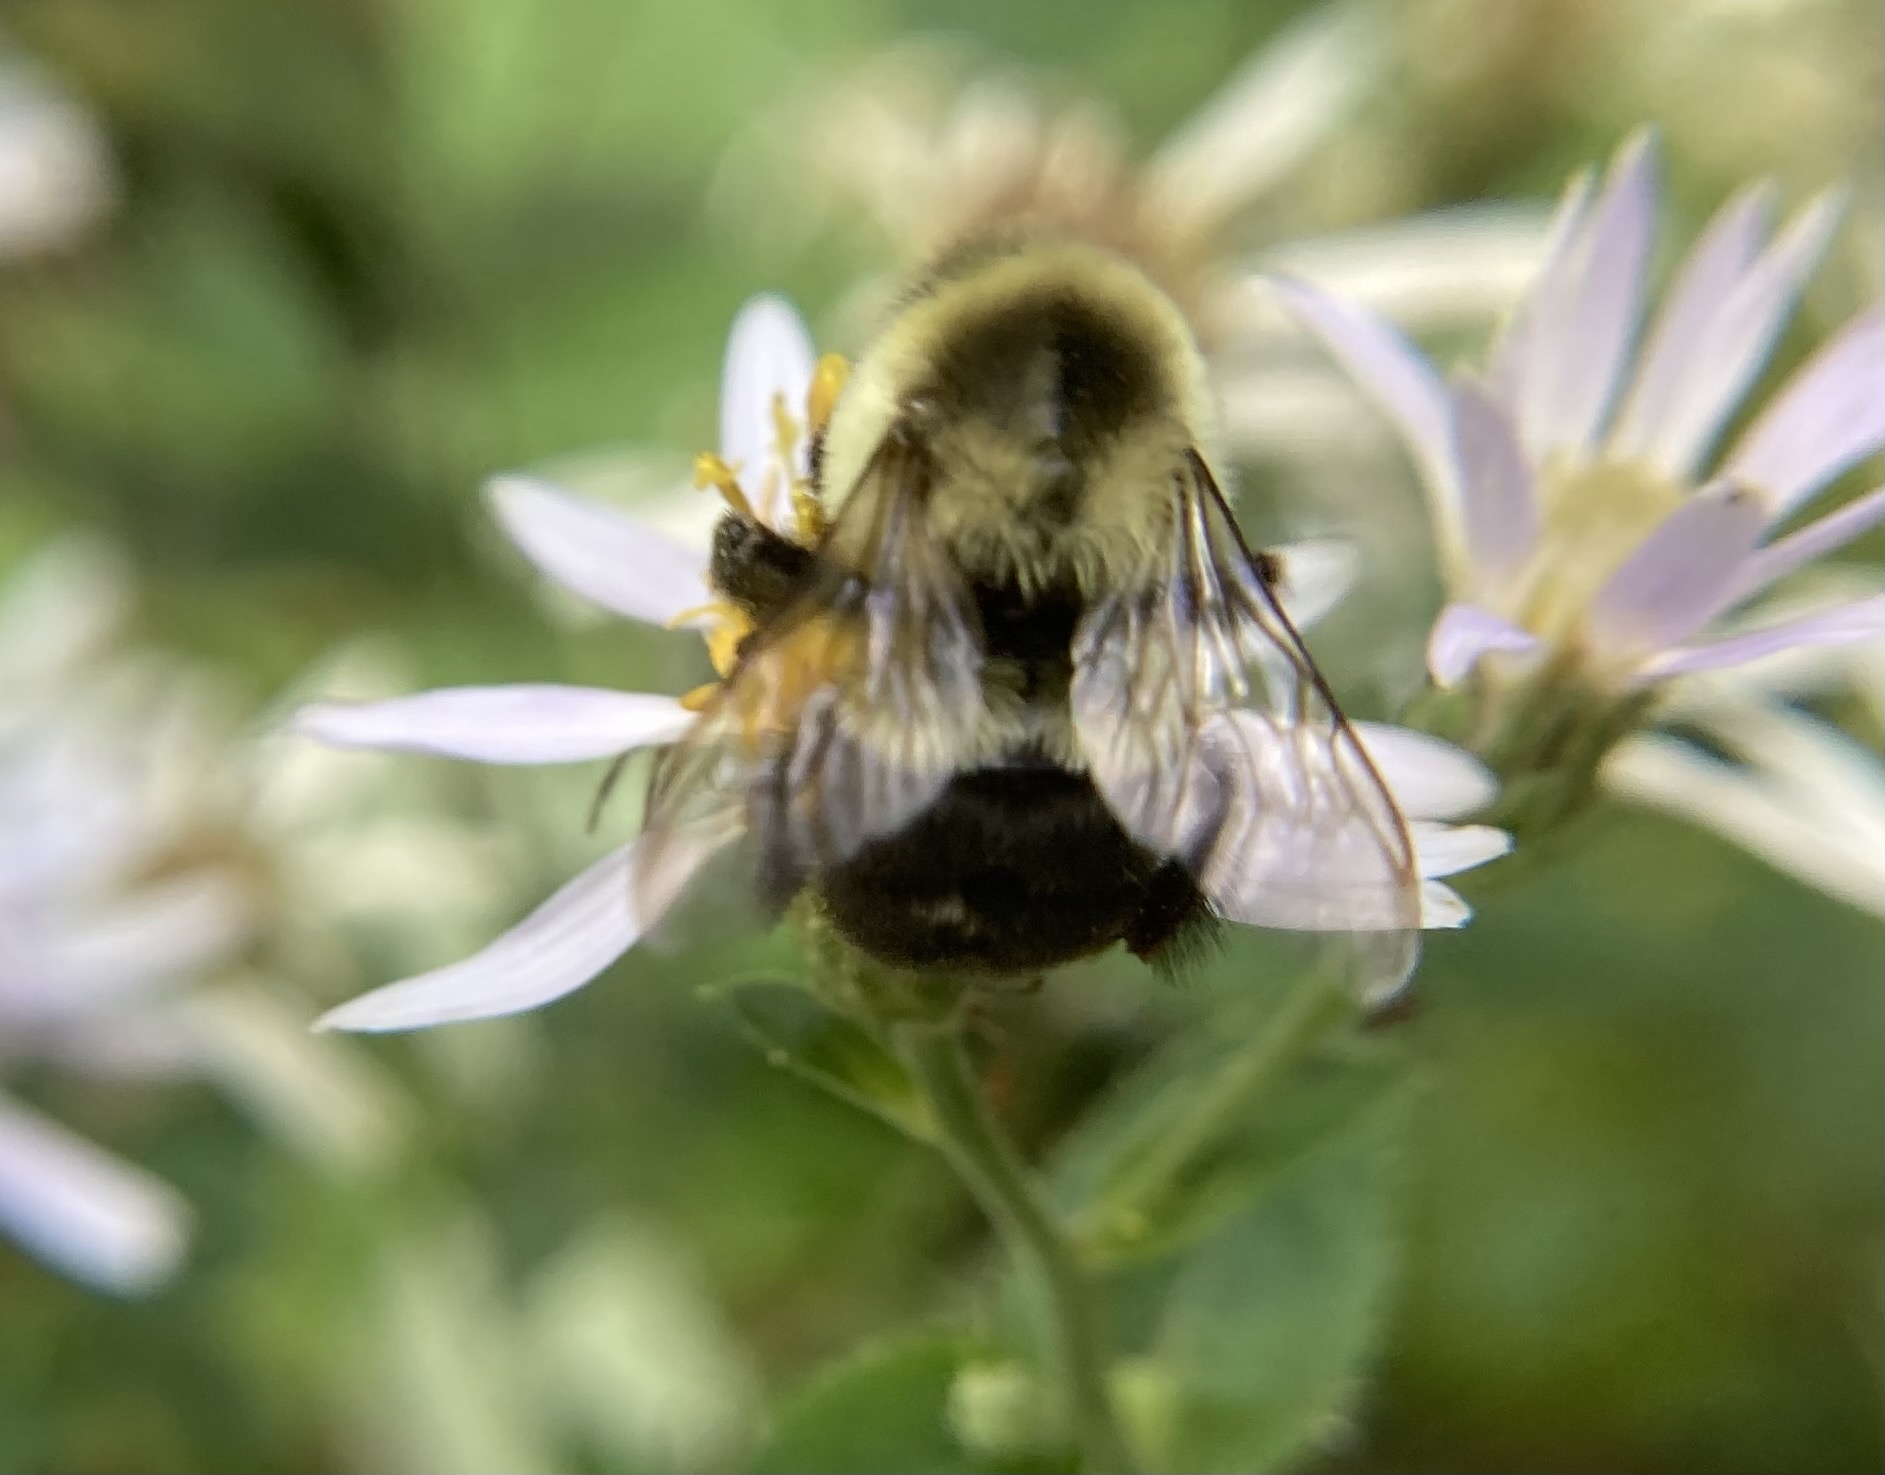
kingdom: Animalia
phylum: Arthropoda
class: Insecta
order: Hymenoptera
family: Apidae
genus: Bombus
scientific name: Bombus impatiens
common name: Common eastern bumble bee
